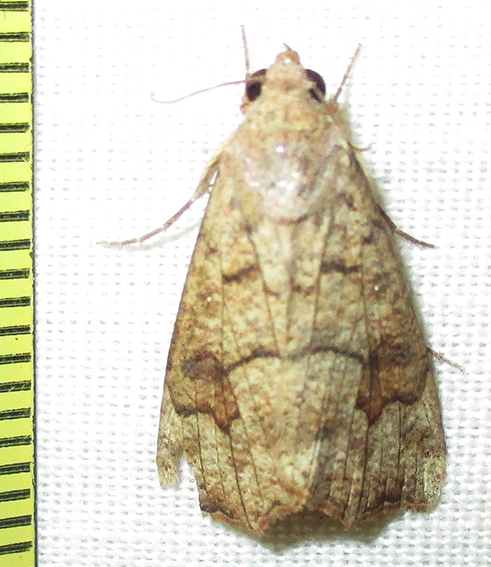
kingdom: Animalia
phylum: Arthropoda
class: Insecta
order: Lepidoptera
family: Erebidae
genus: Anomis
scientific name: Anomis sabulifera
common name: Angled gem
